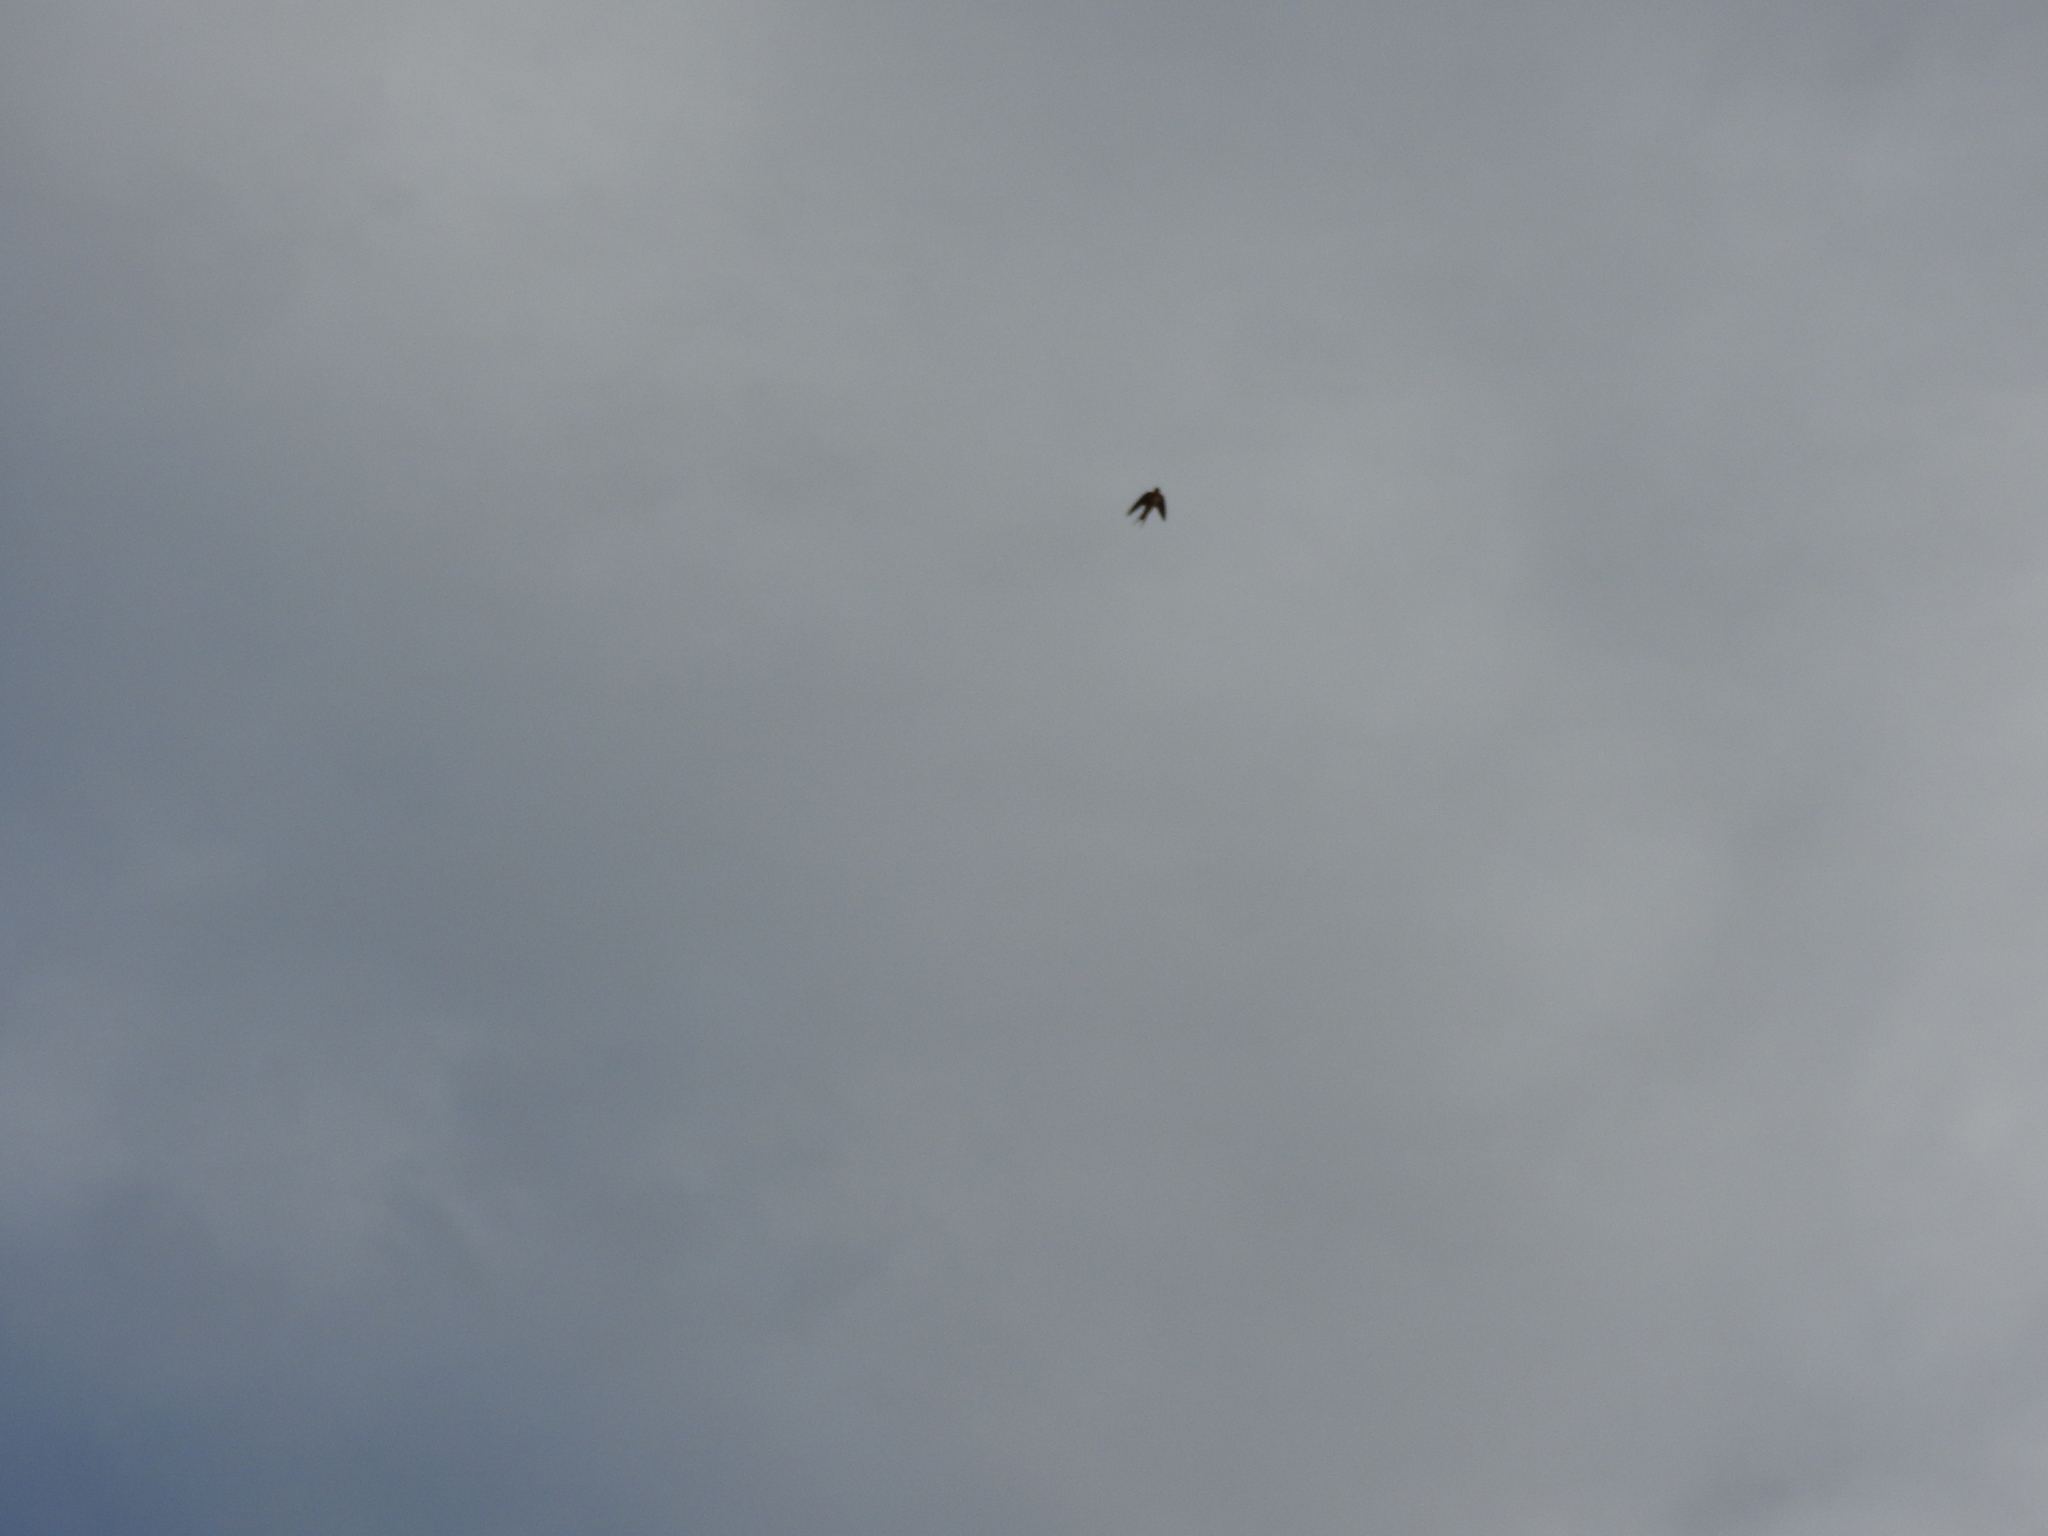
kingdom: Animalia
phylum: Chordata
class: Aves
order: Passeriformes
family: Hirundinidae
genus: Hirundo
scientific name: Hirundo rustica
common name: Barn swallow
